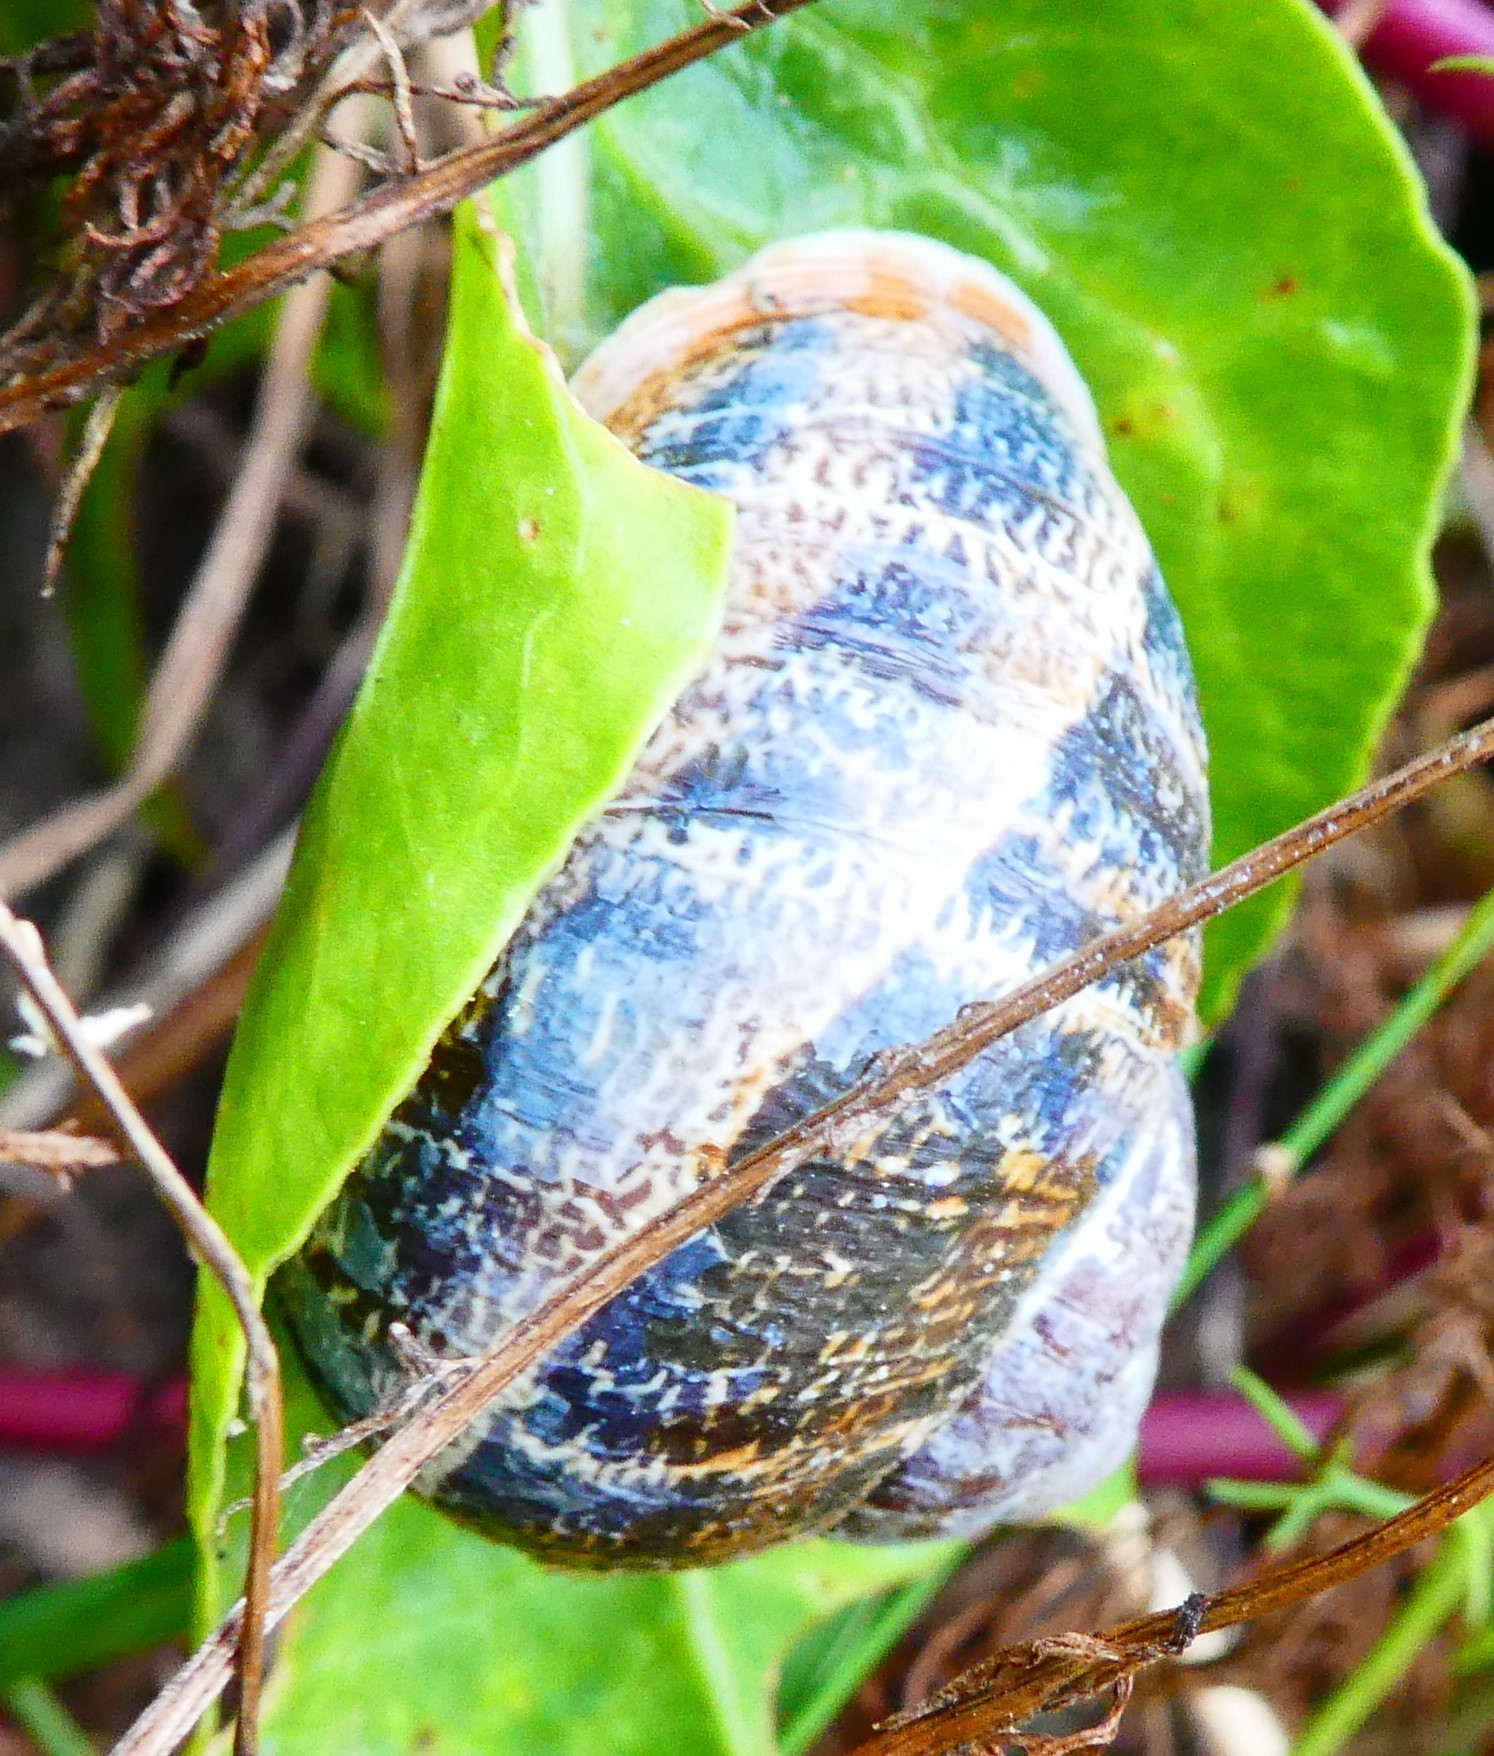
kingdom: Animalia
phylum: Mollusca
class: Gastropoda
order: Stylommatophora
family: Helicidae
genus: Cornu
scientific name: Cornu aspersum
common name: Brown garden snail
